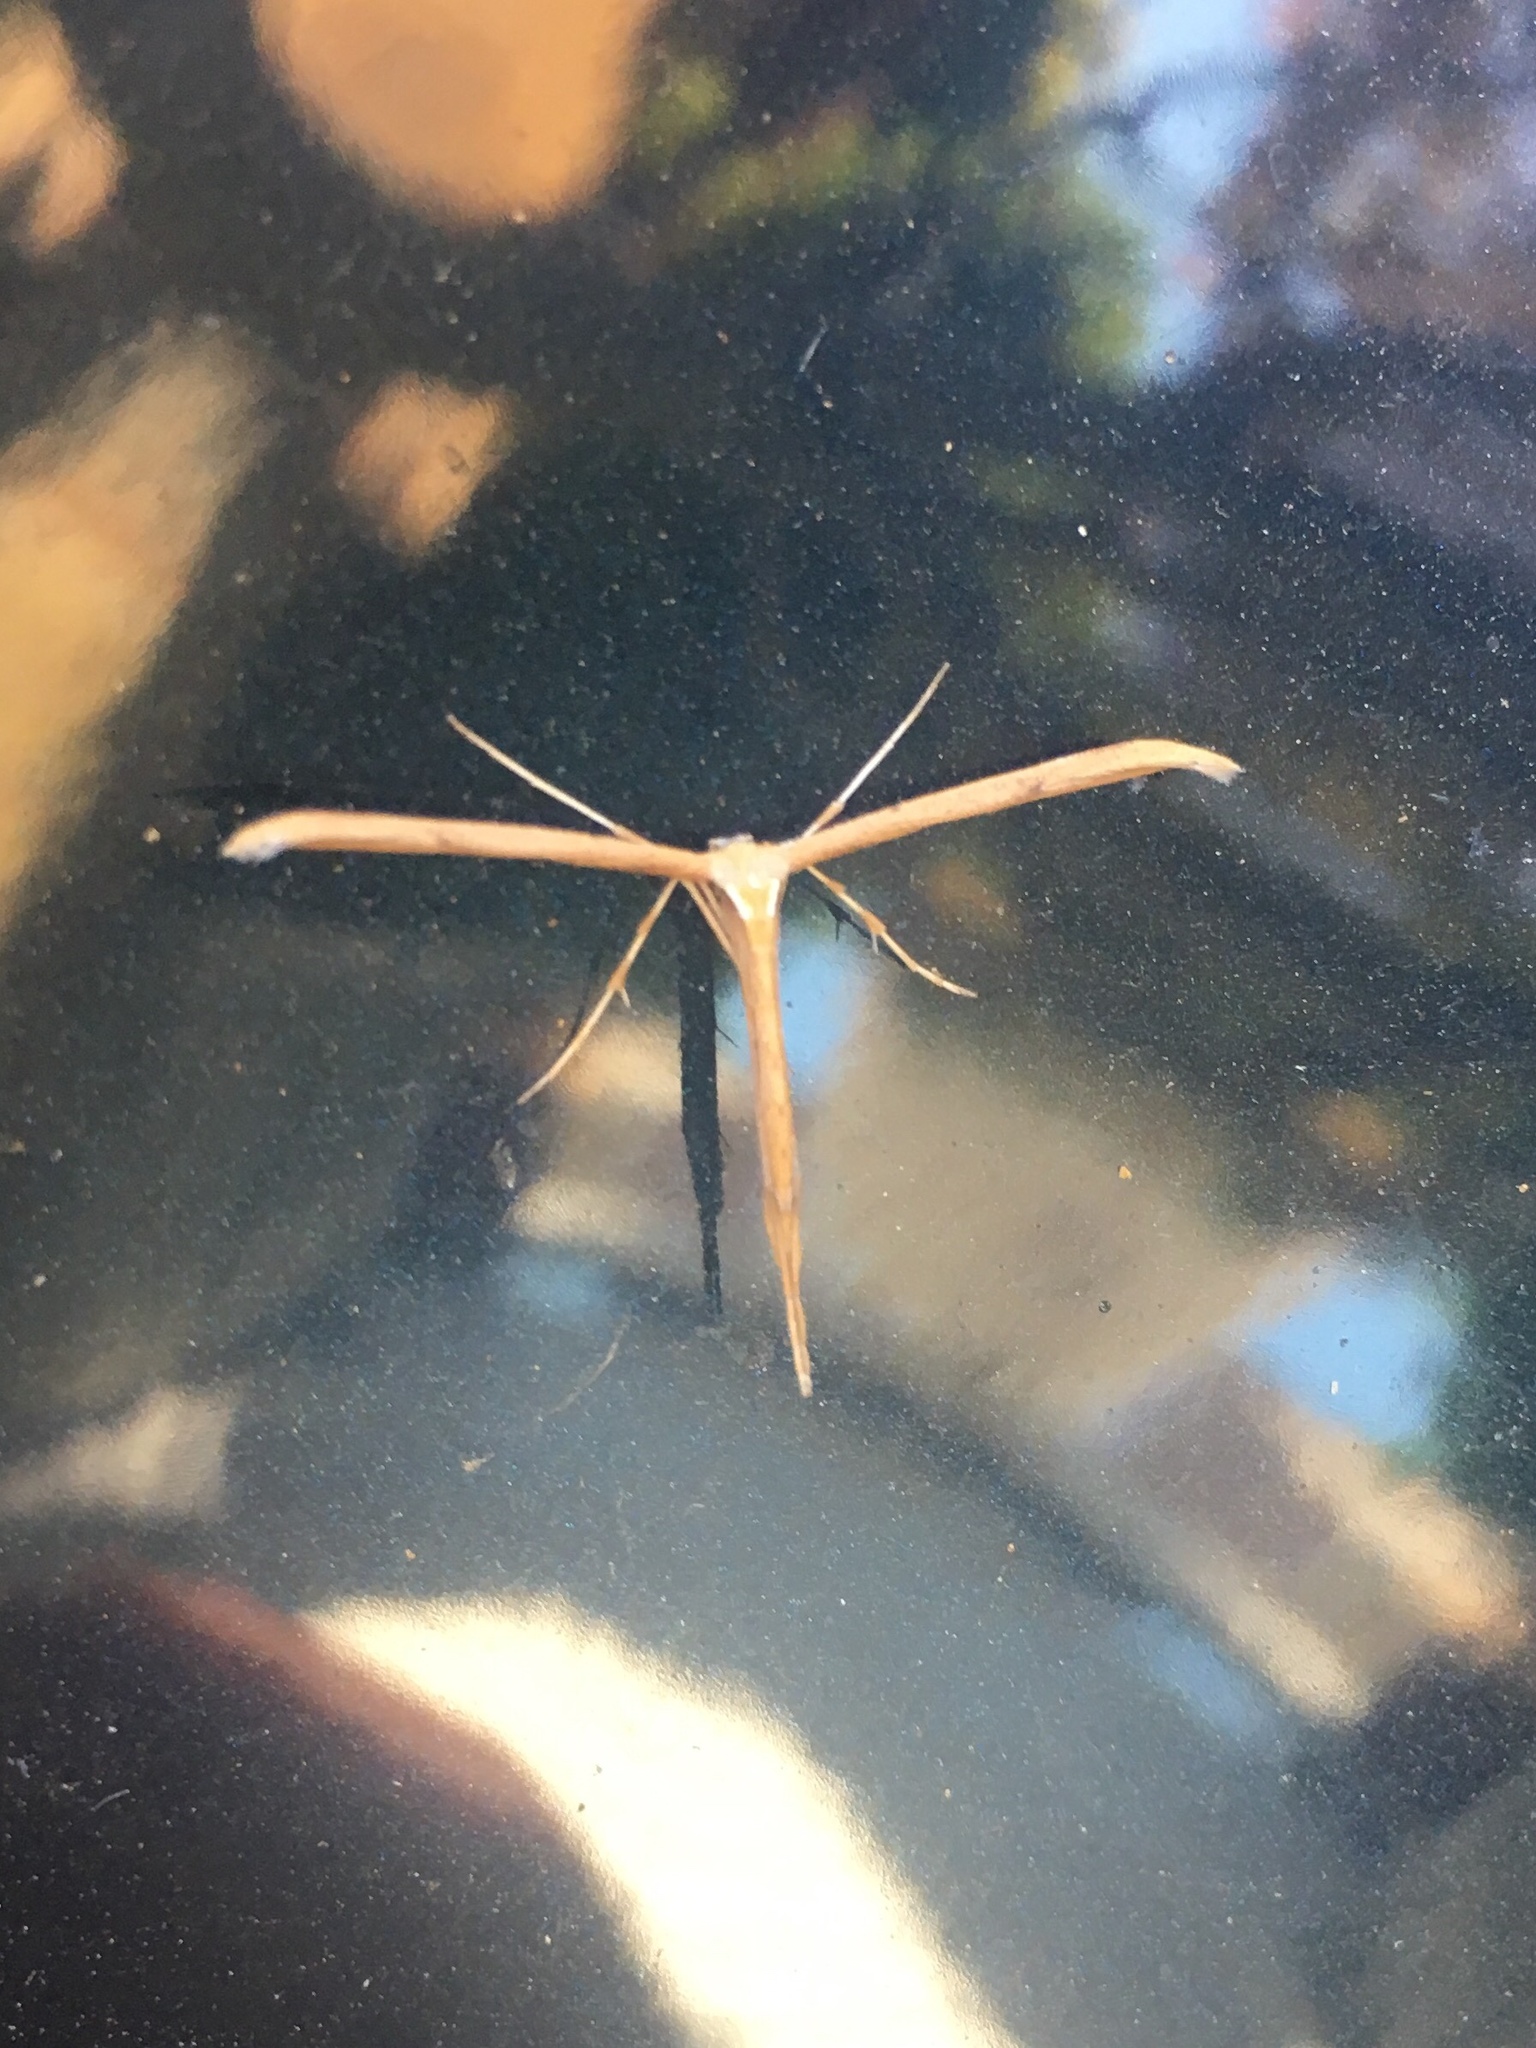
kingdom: Animalia
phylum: Arthropoda
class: Insecta
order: Lepidoptera
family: Pterophoridae
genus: Emmelina
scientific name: Emmelina monodactyla
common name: Common plume
